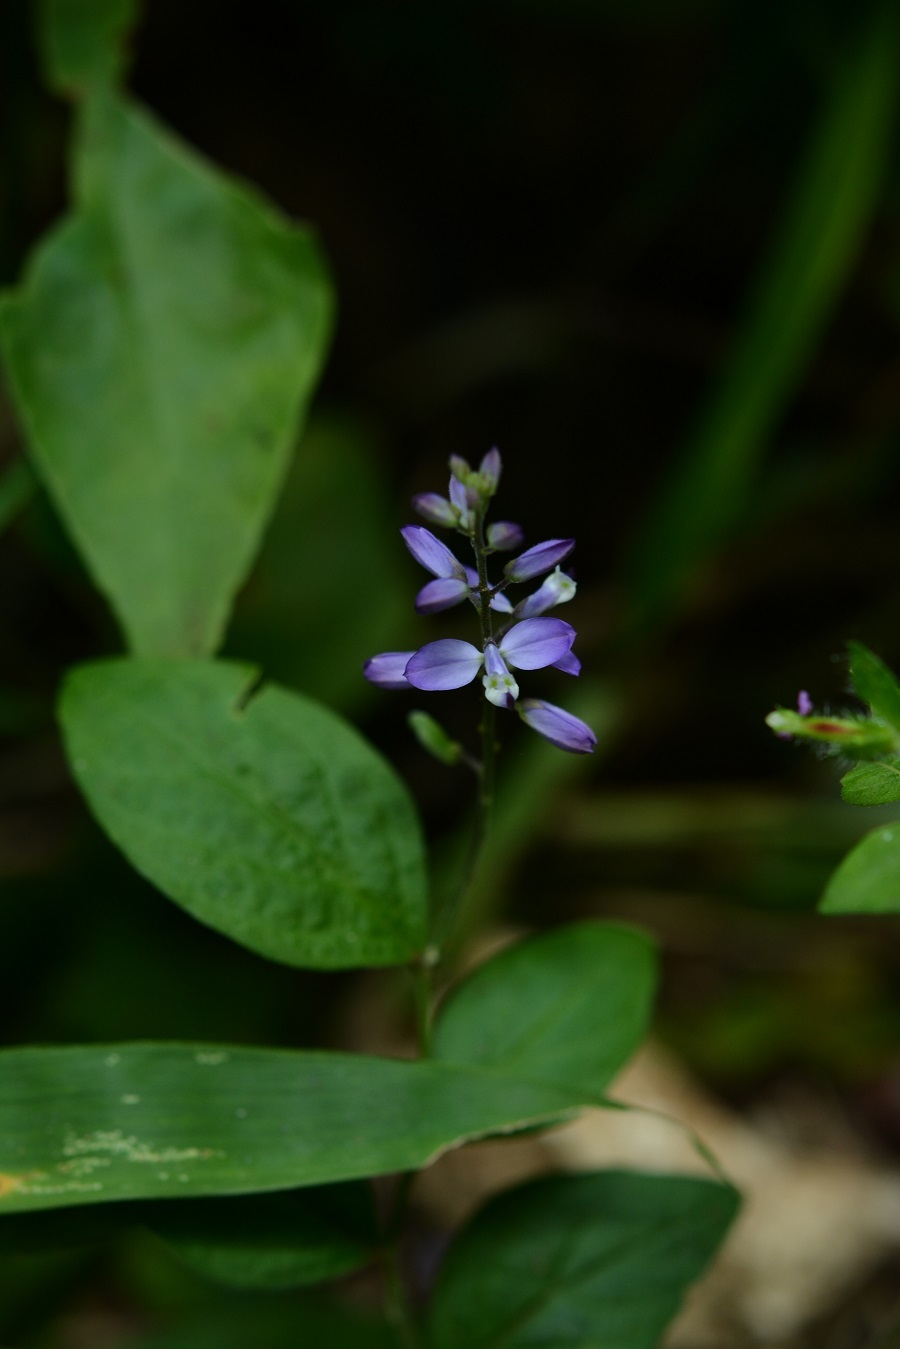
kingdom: Plantae
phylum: Tracheophyta
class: Magnoliopsida
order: Fabales
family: Polygalaceae
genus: Hebecarpa
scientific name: Hebecarpa costaricensis
